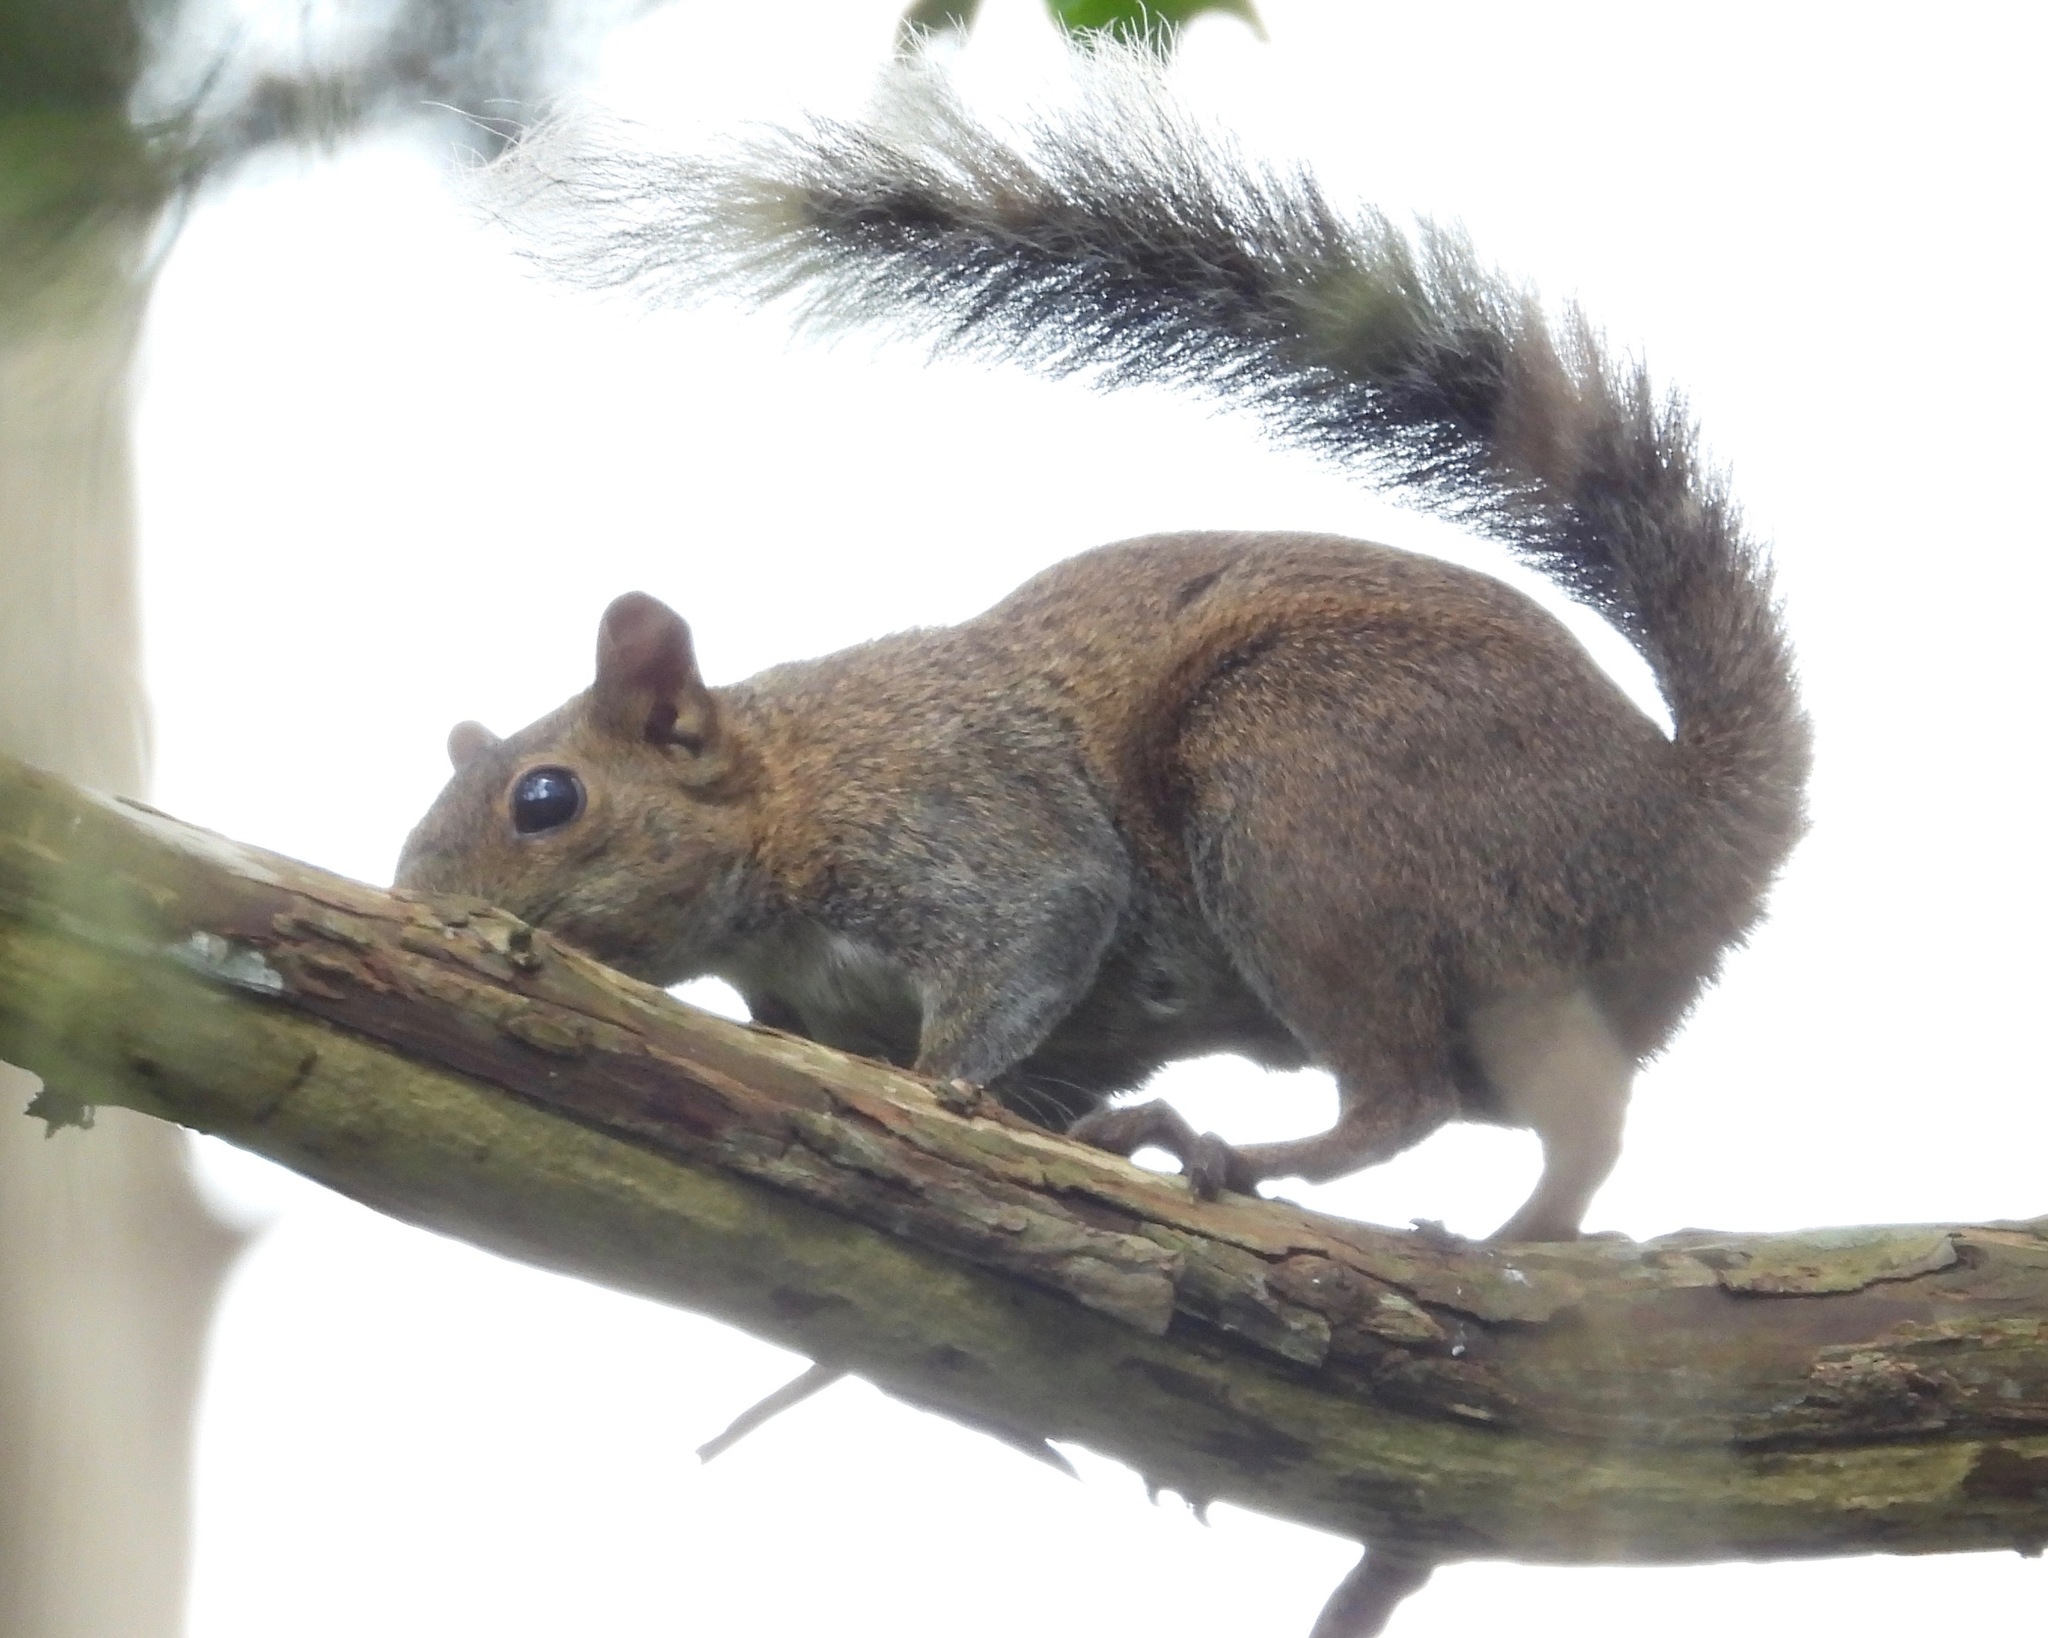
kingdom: Animalia
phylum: Chordata
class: Mammalia
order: Rodentia
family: Sciuridae
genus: Sciurus
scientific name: Sciurus deppei
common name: Deppe's squirrel
